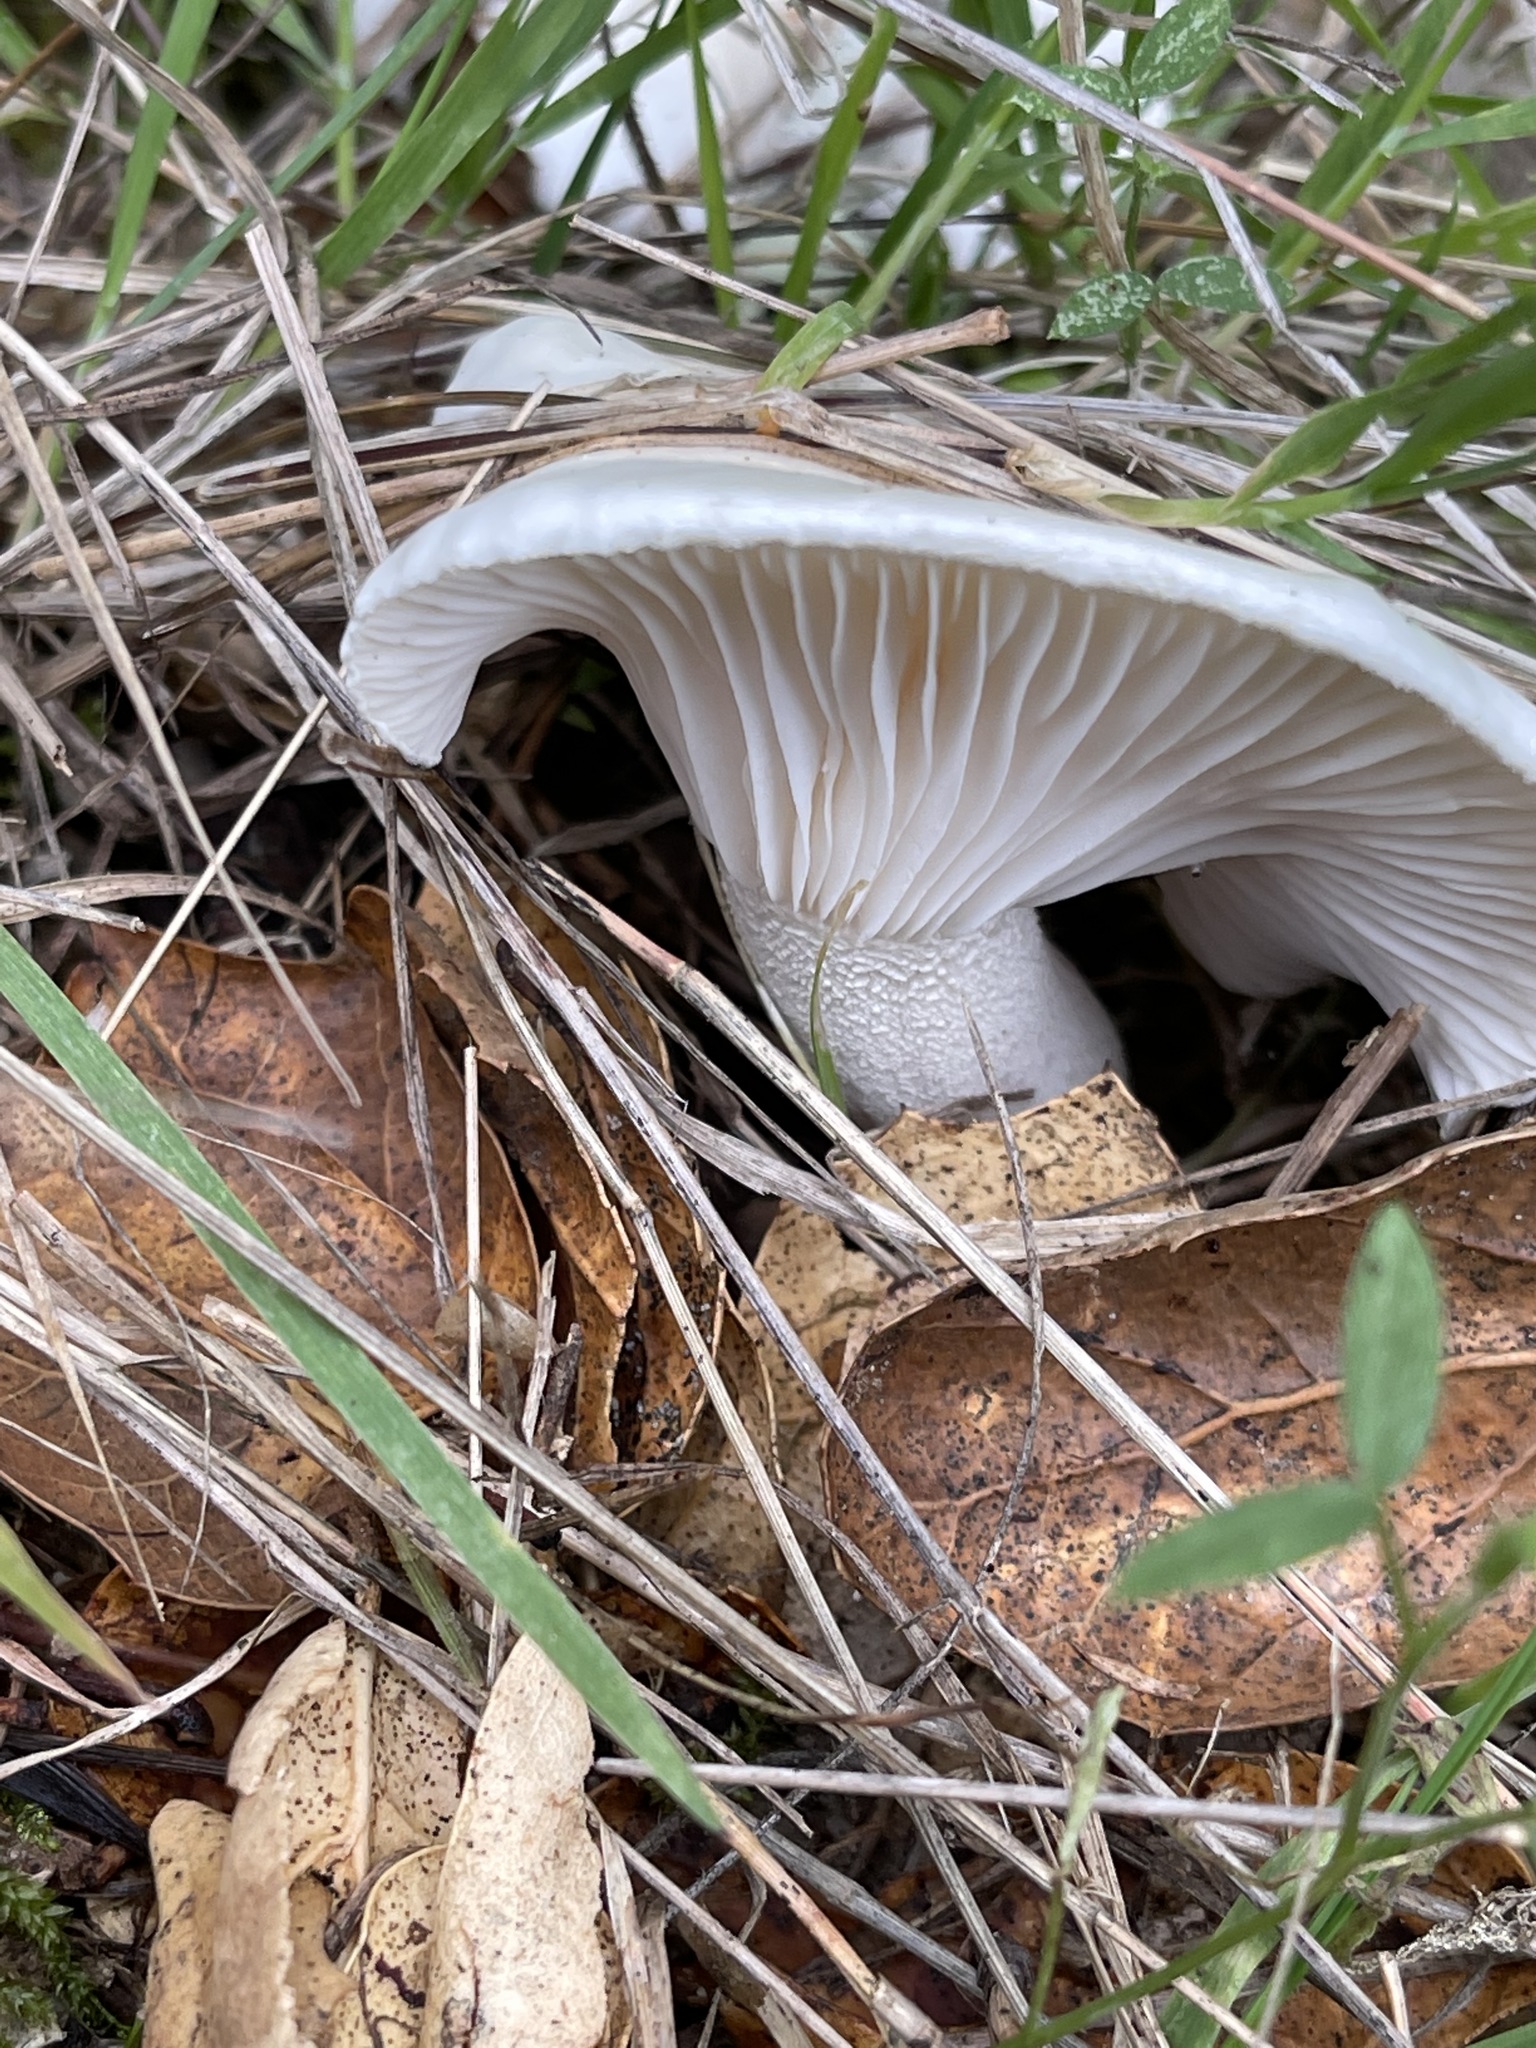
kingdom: Fungi
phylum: Basidiomycota
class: Agaricomycetes
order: Agaricales
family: Hygrophoraceae
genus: Hygrophorus
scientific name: Hygrophorus eburneus
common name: Ivory wax-cap
